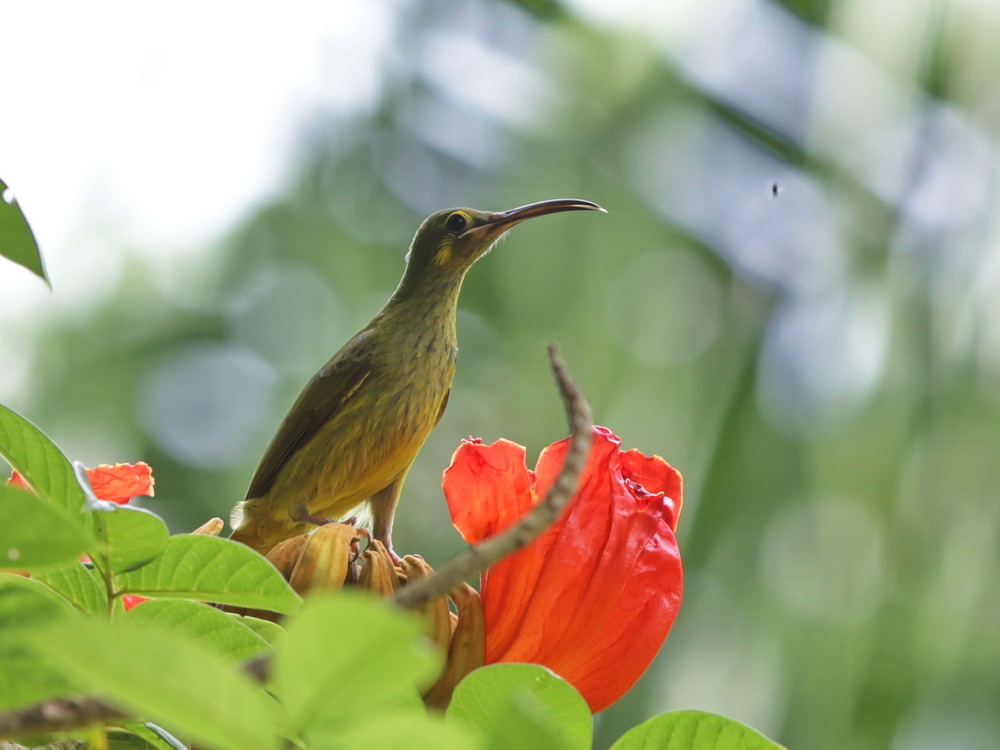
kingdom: Animalia
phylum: Chordata
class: Aves
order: Passeriformes
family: Nectariniidae
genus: Arachnothera
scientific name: Arachnothera chrysogenys
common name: Yellow-eared spiderhunter
